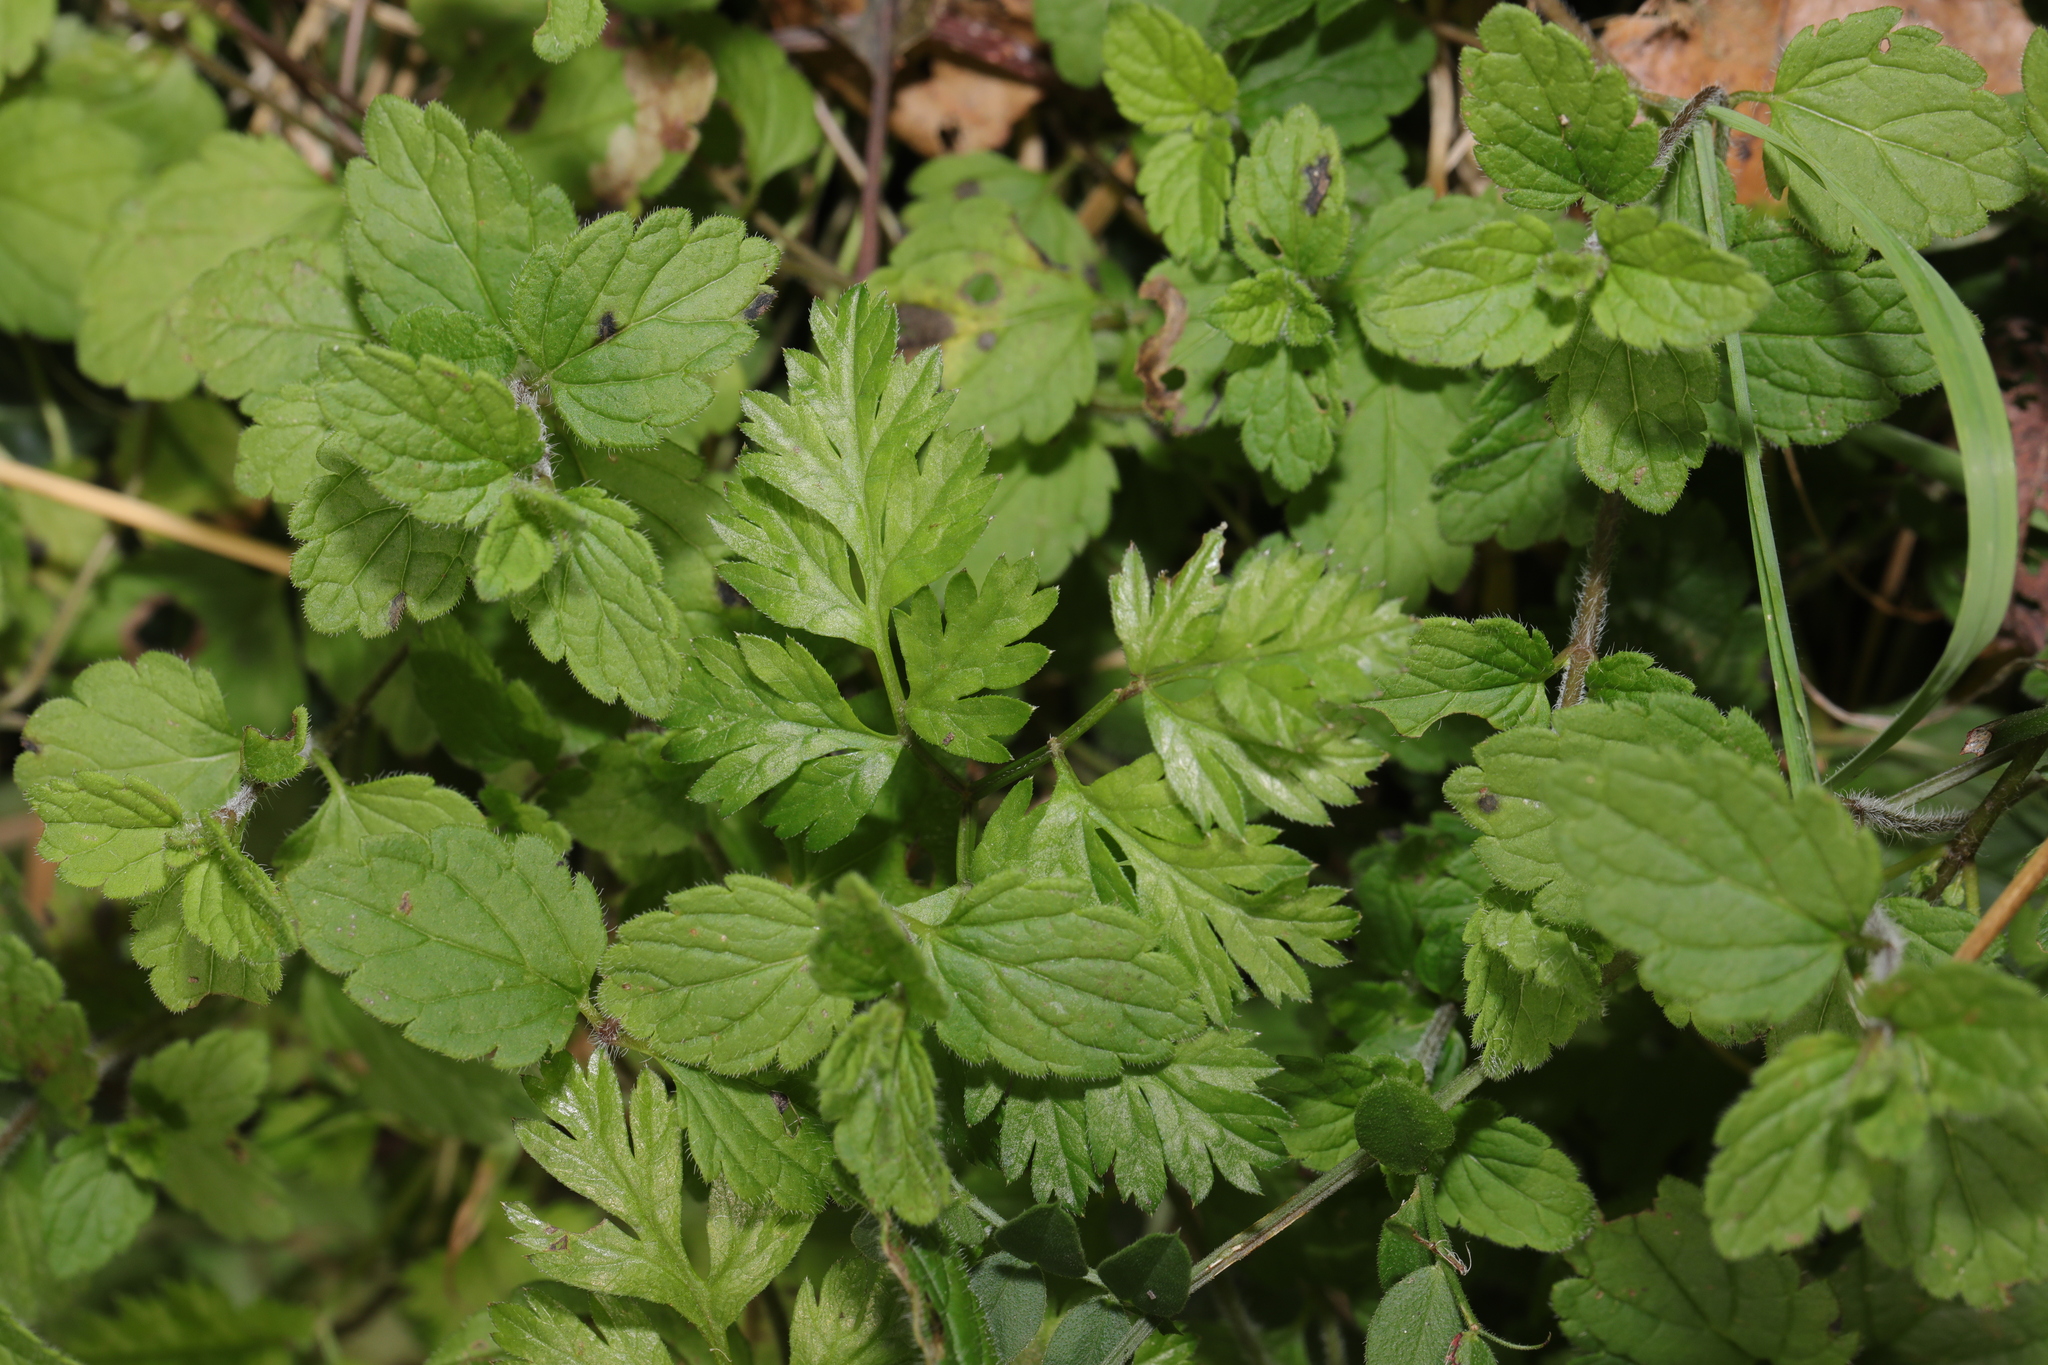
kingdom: Plantae
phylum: Tracheophyta
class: Magnoliopsida
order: Lamiales
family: Plantaginaceae
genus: Veronica
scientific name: Veronica chamaedrys
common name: Germander speedwell
